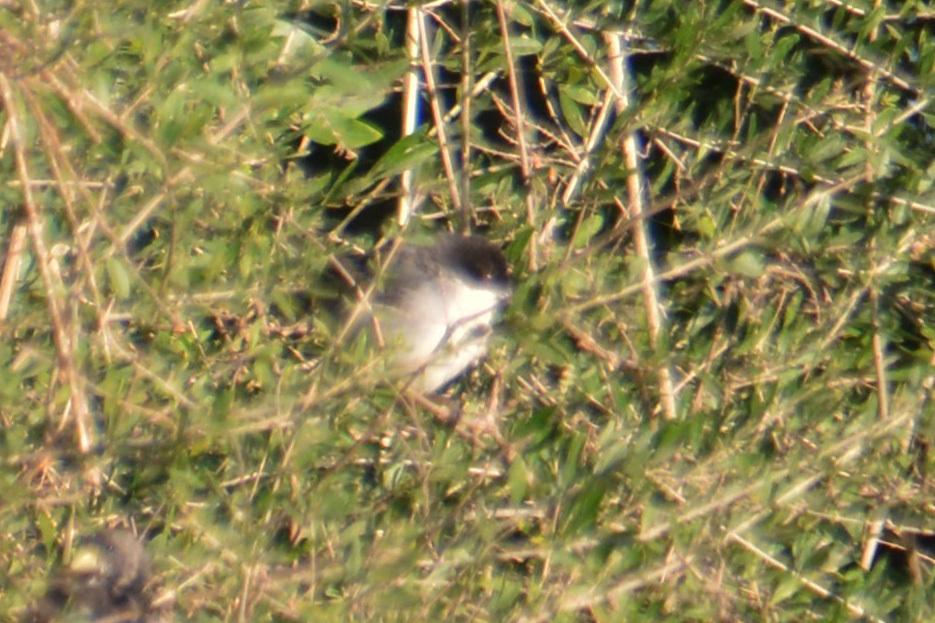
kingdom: Animalia
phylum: Chordata
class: Aves
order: Passeriformes
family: Thraupidae
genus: Microspingus
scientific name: Microspingus melanoleucus
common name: Black-capped warbling-finch
